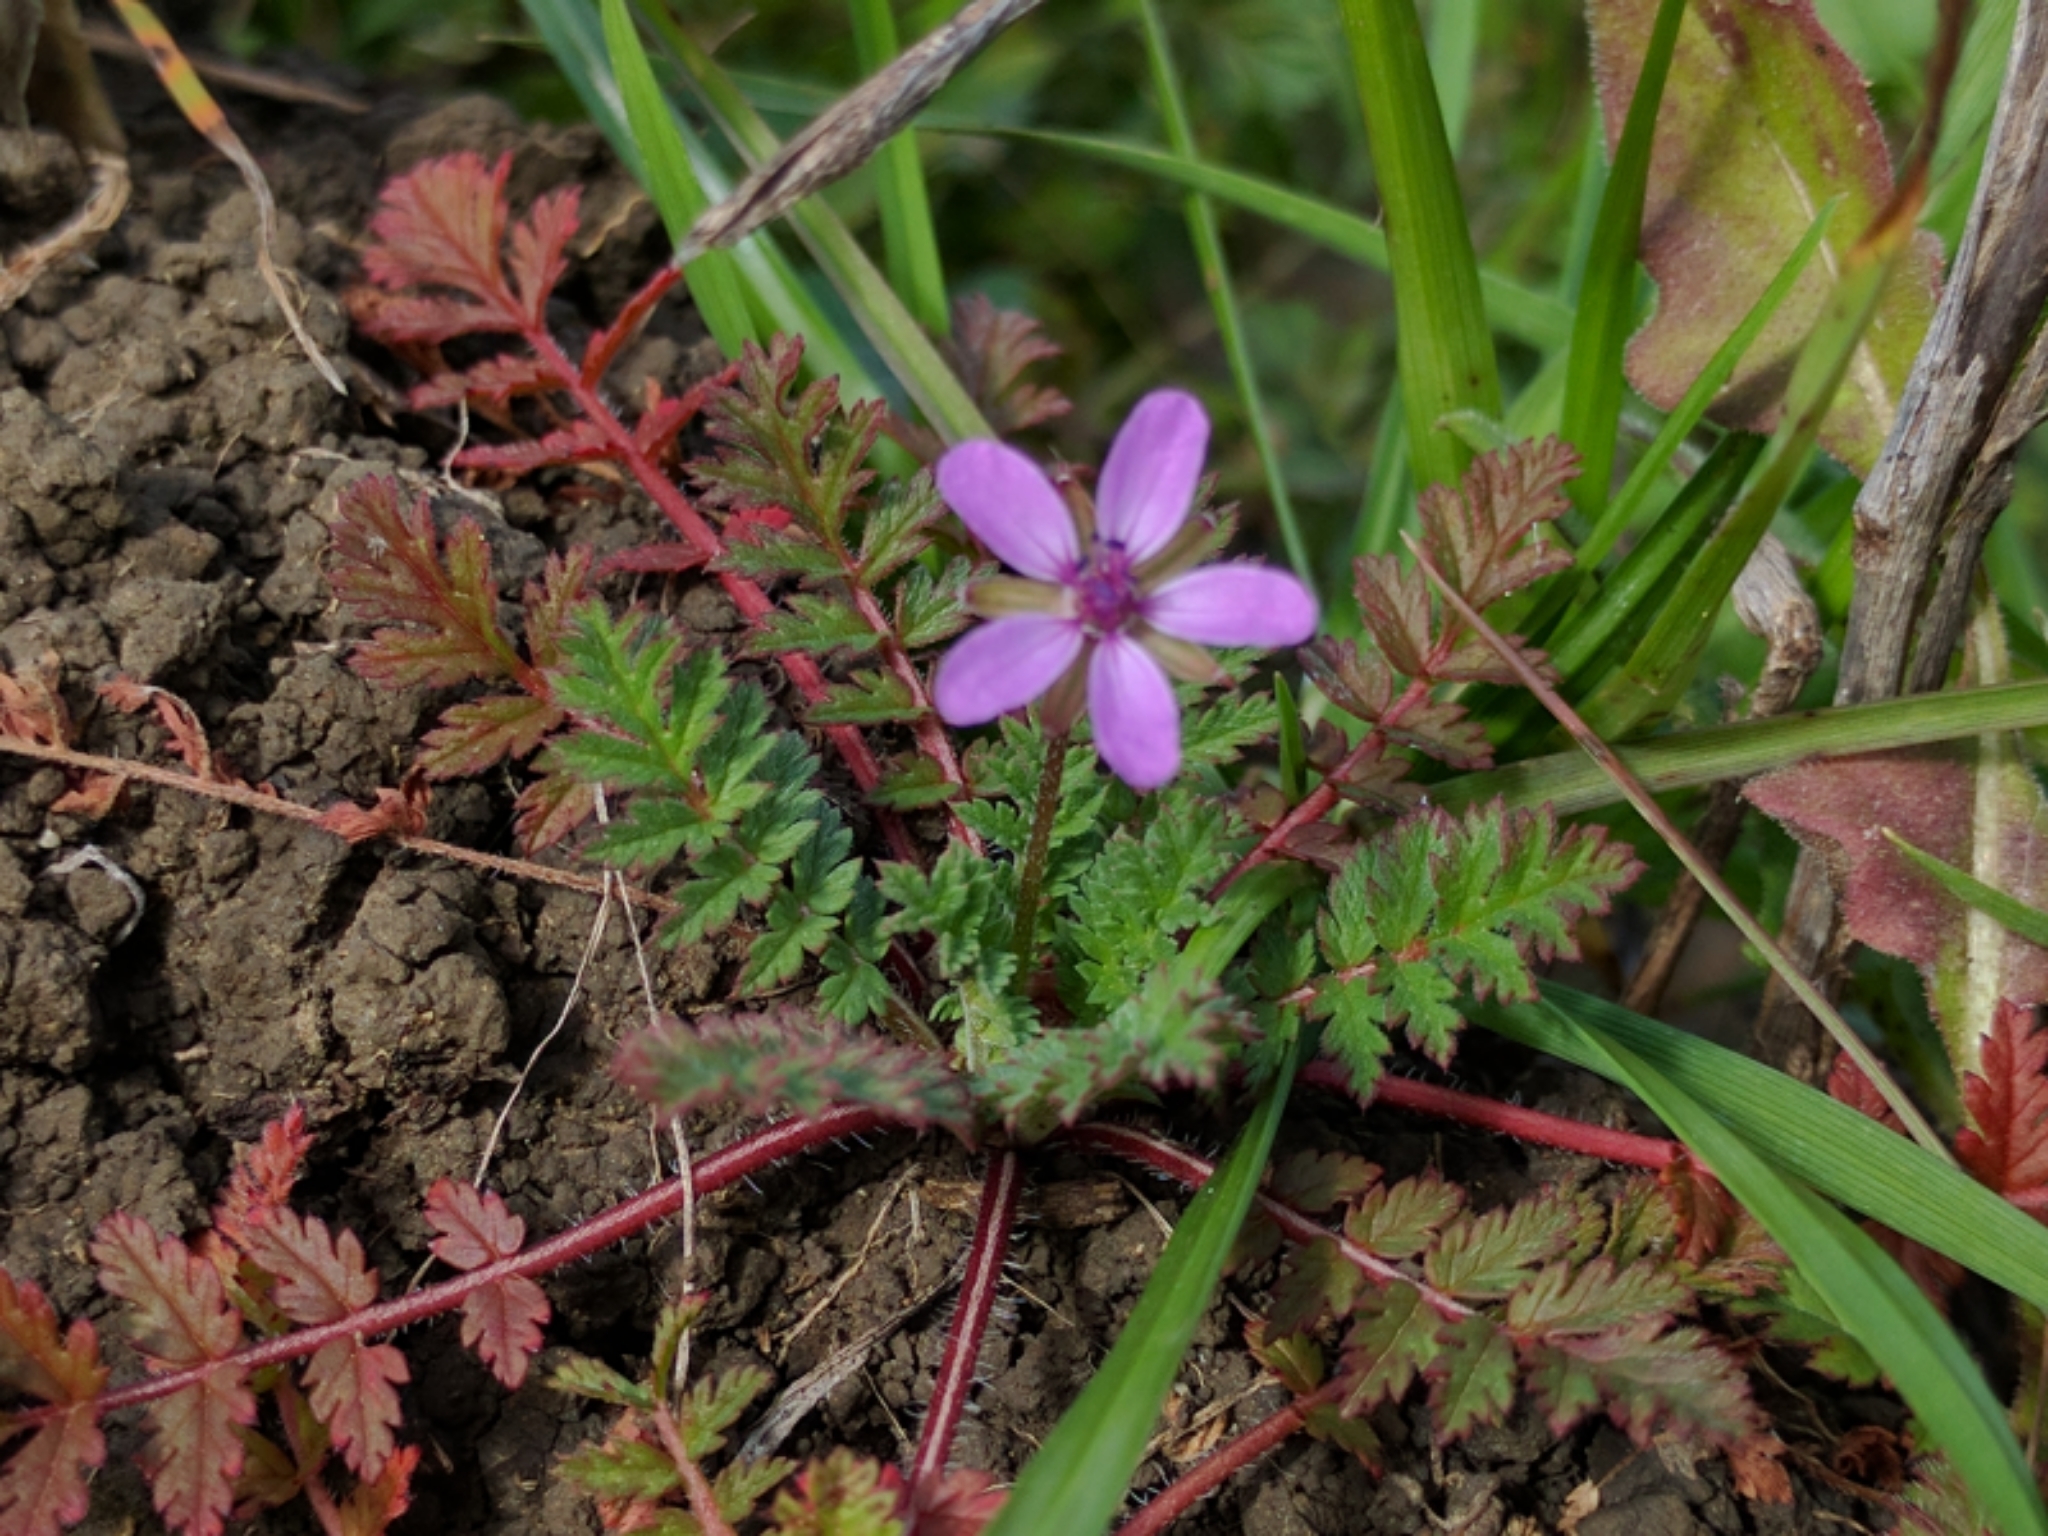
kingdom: Plantae
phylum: Tracheophyta
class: Magnoliopsida
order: Geraniales
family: Geraniaceae
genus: Erodium
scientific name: Erodium cicutarium
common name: Common stork's-bill
